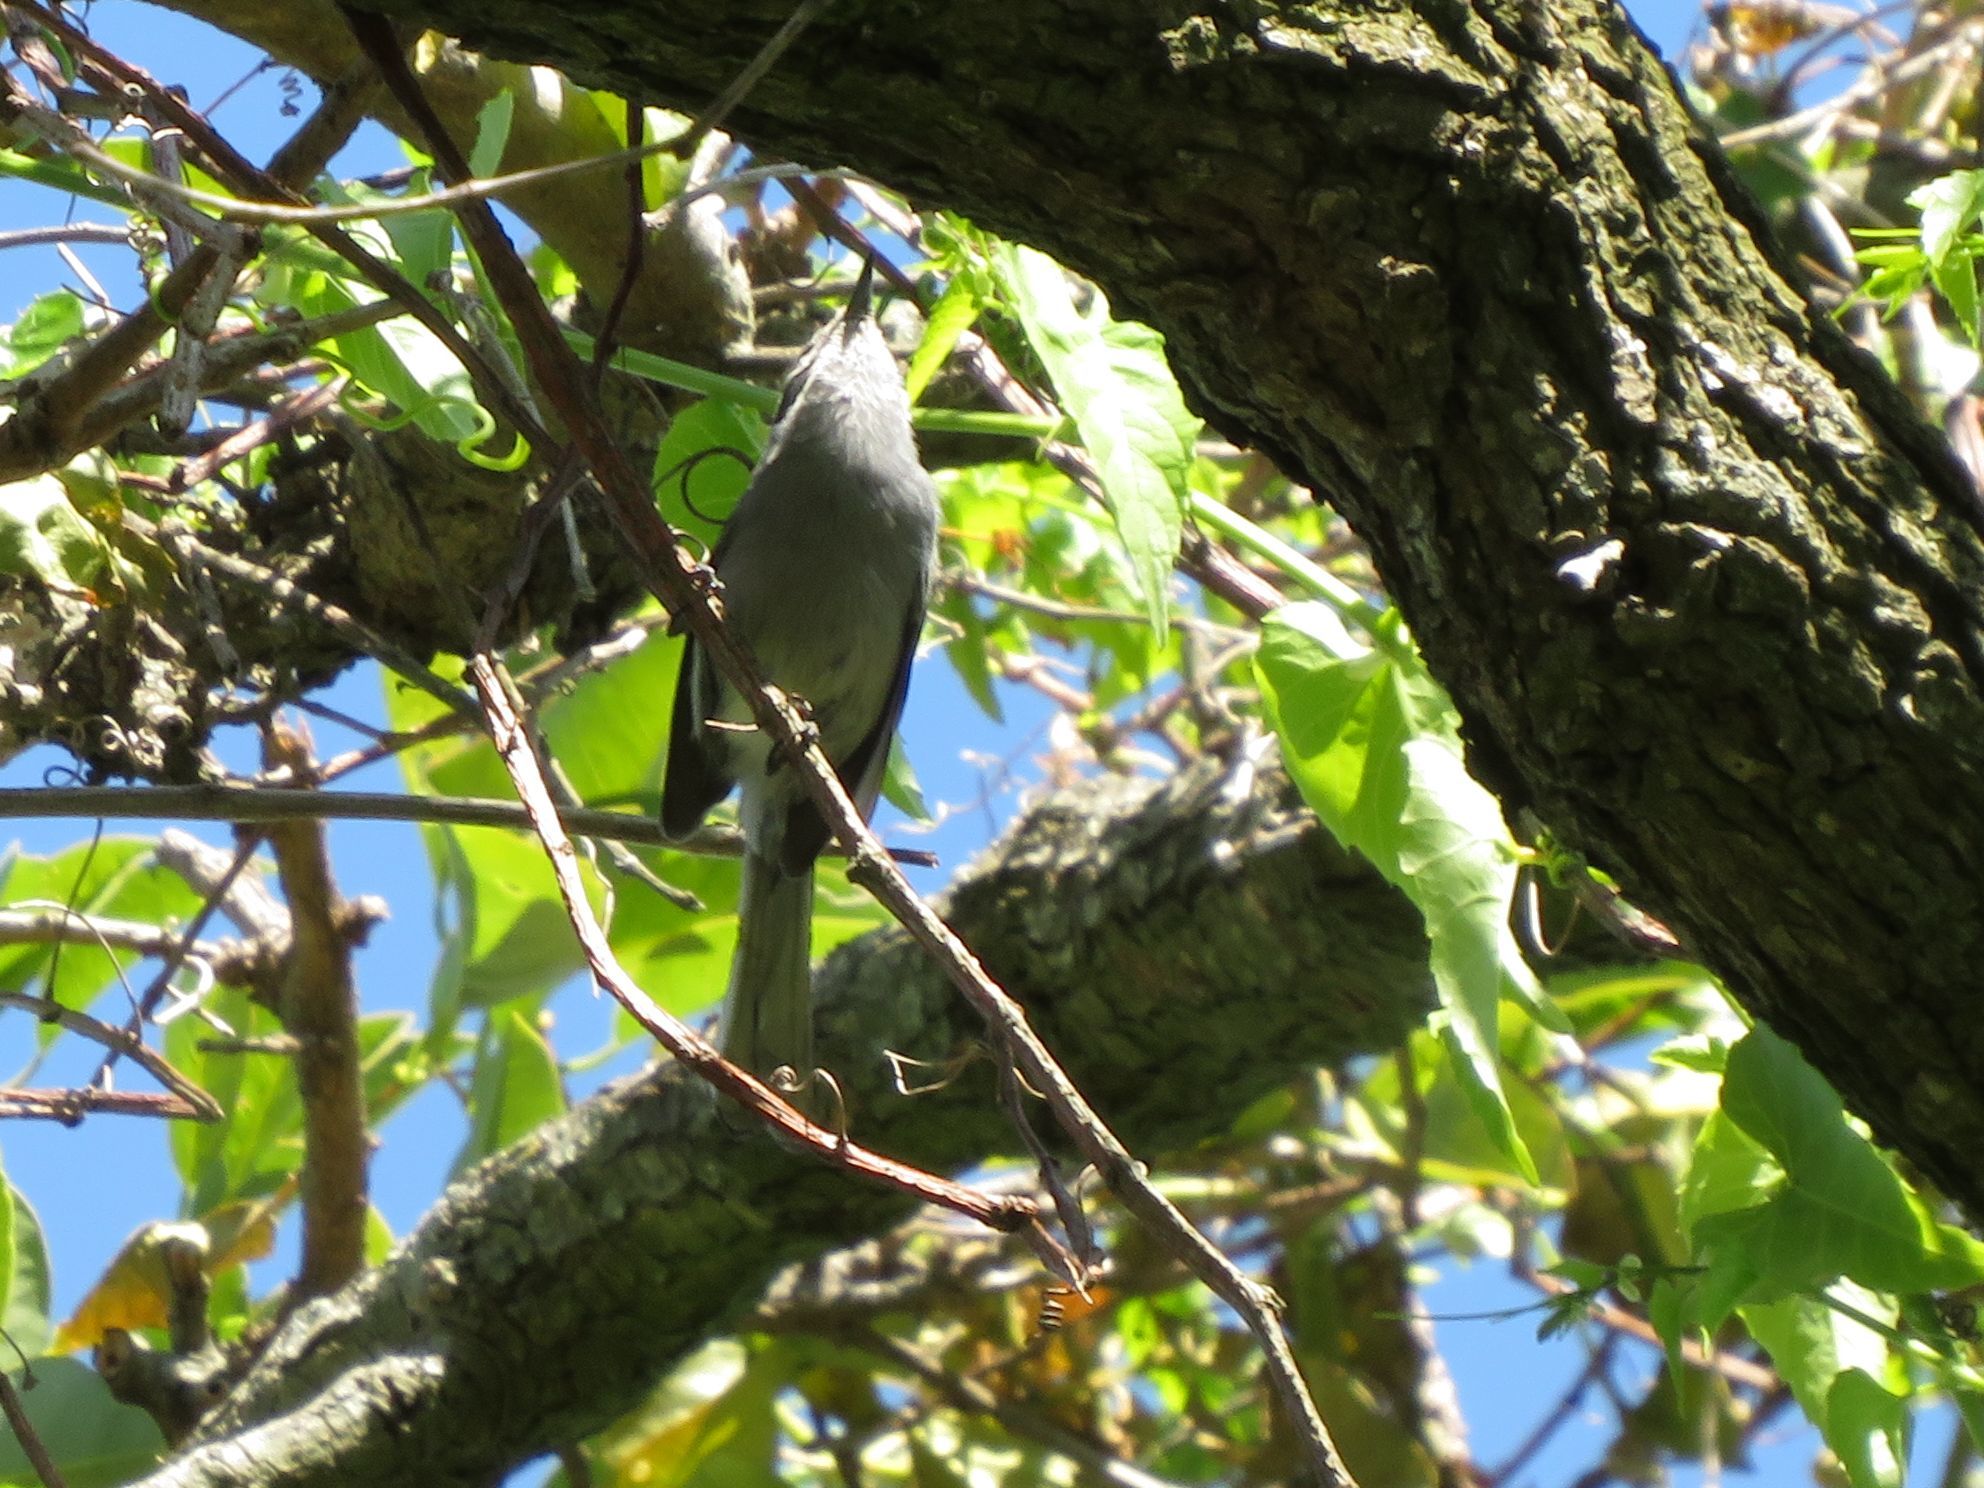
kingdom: Animalia
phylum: Chordata
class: Aves
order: Passeriformes
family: Polioptilidae
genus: Polioptila
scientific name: Polioptila dumicola
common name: Masked gnatcatcher
